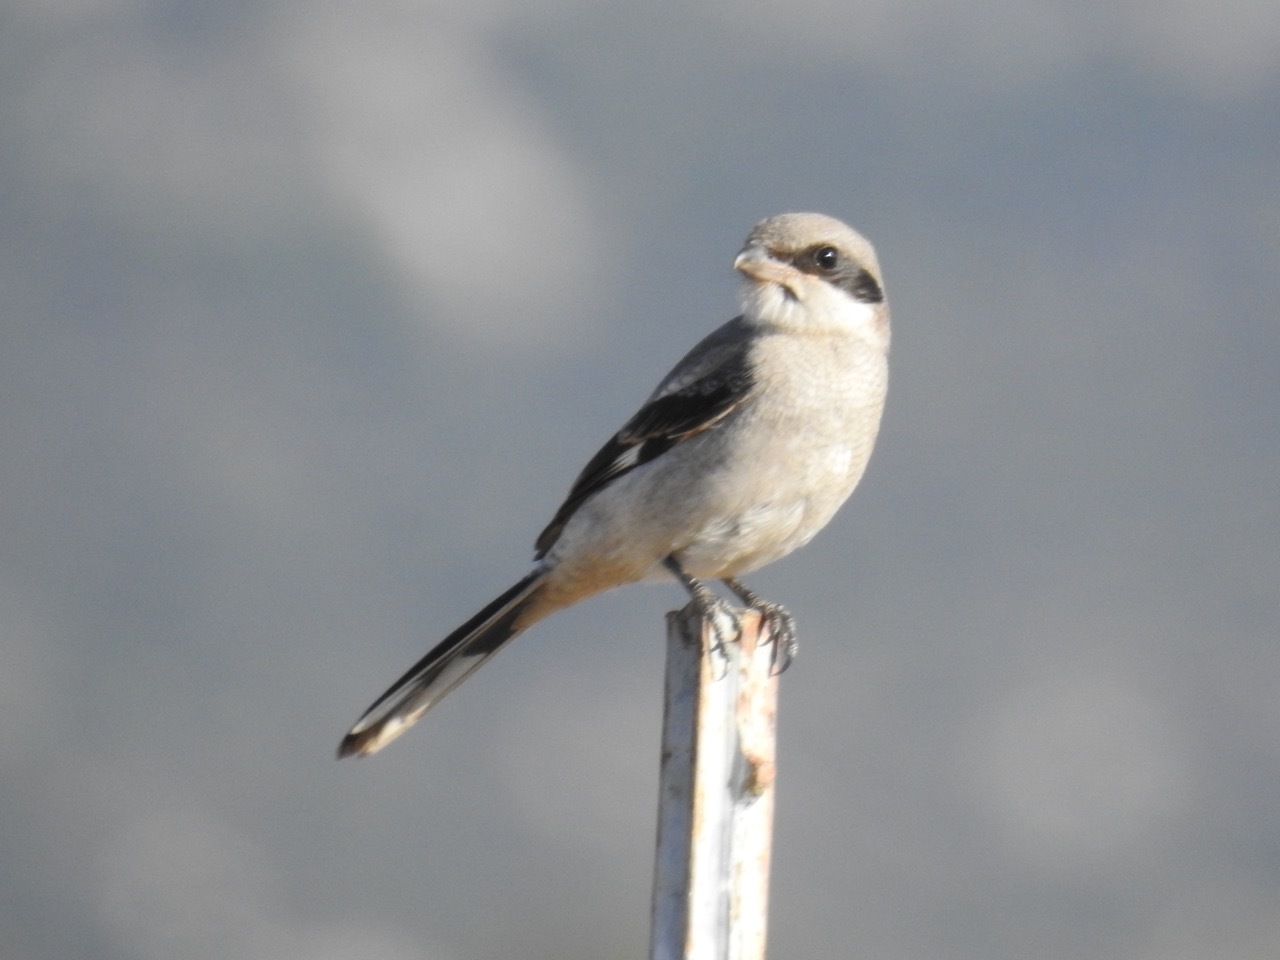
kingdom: Animalia
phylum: Chordata
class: Aves
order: Passeriformes
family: Laniidae
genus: Lanius
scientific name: Lanius ludovicianus
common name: Loggerhead shrike
